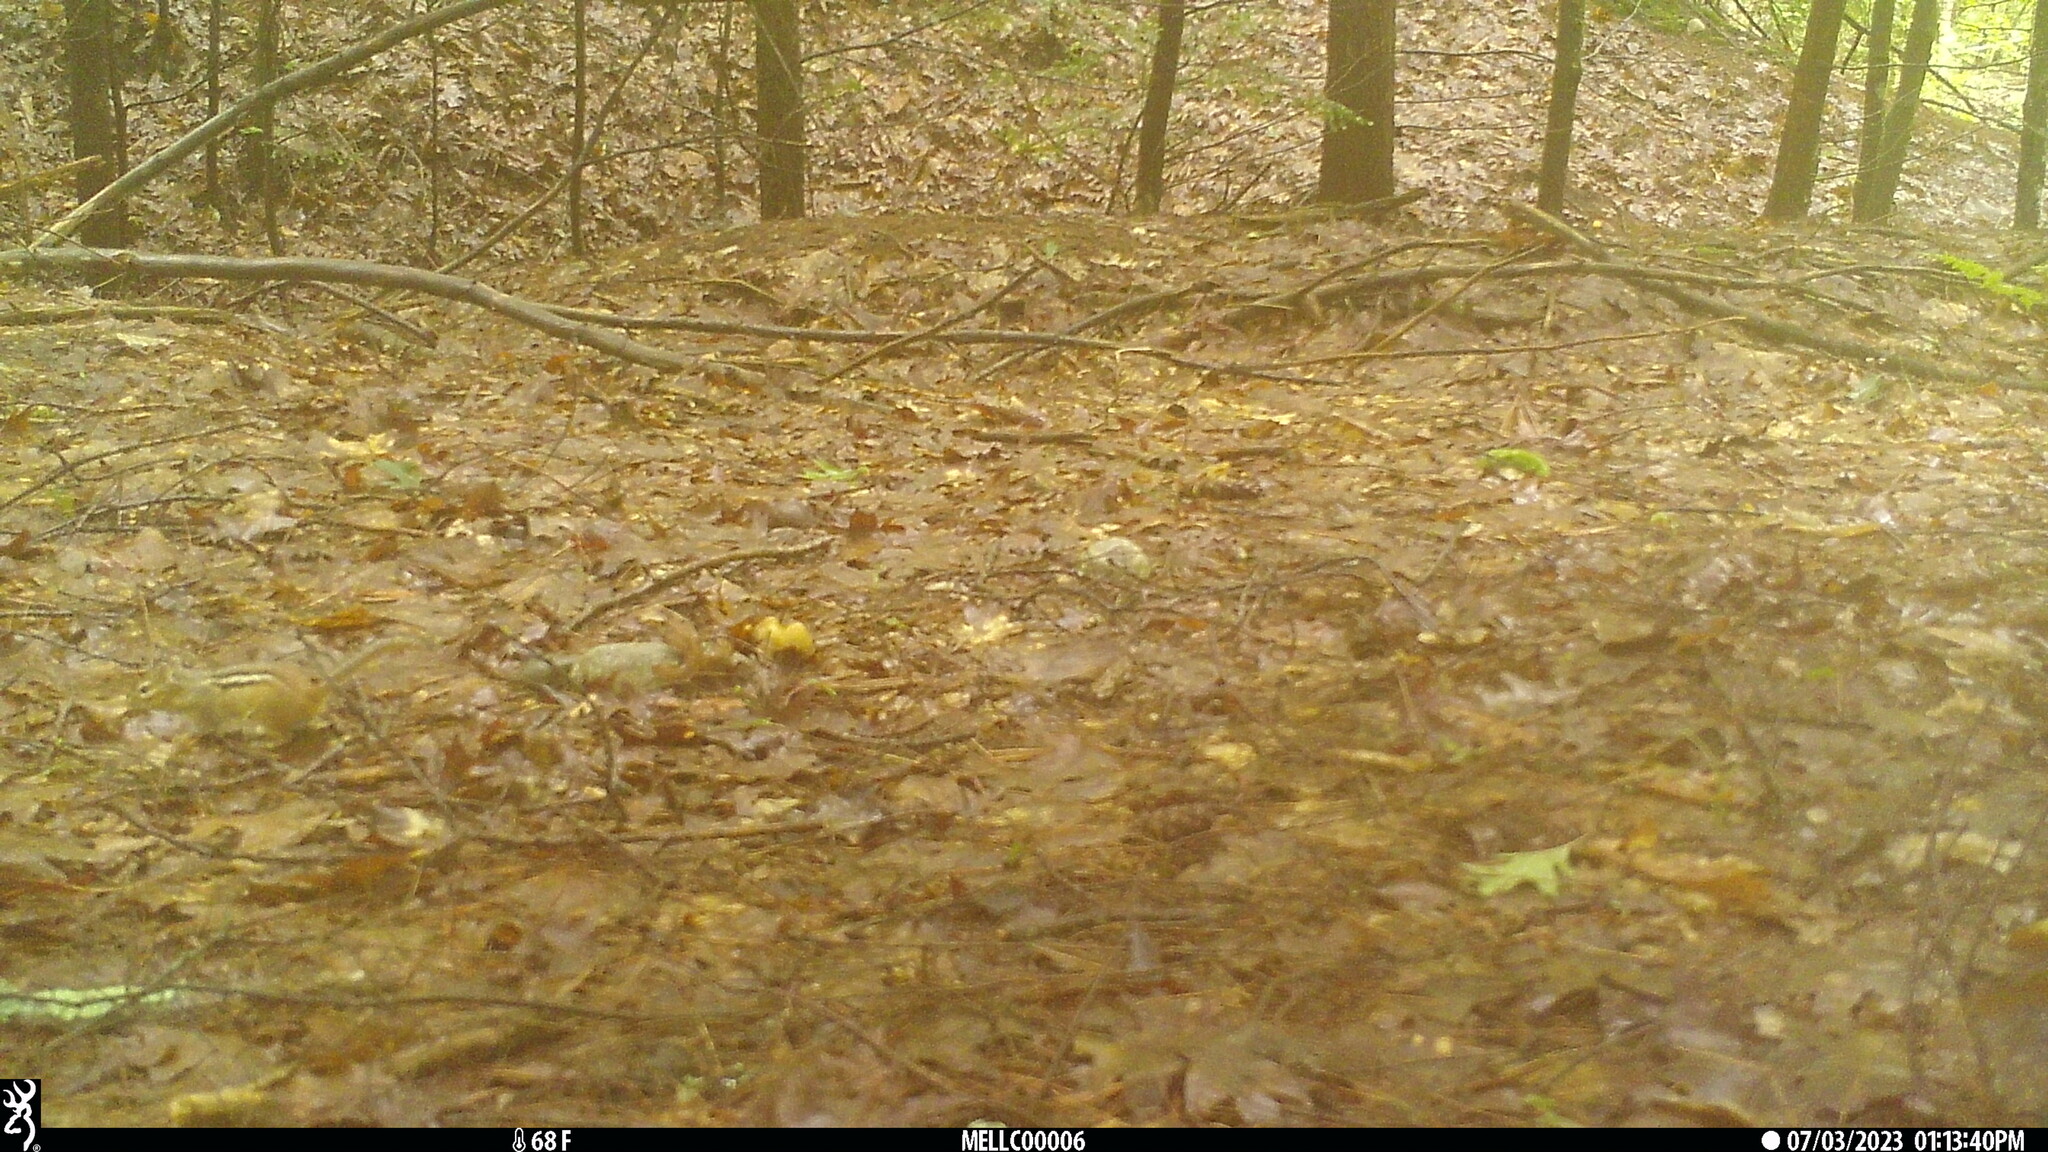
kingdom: Animalia
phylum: Chordata
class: Mammalia
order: Rodentia
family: Sciuridae
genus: Tamias
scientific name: Tamias striatus
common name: Eastern chipmunk
